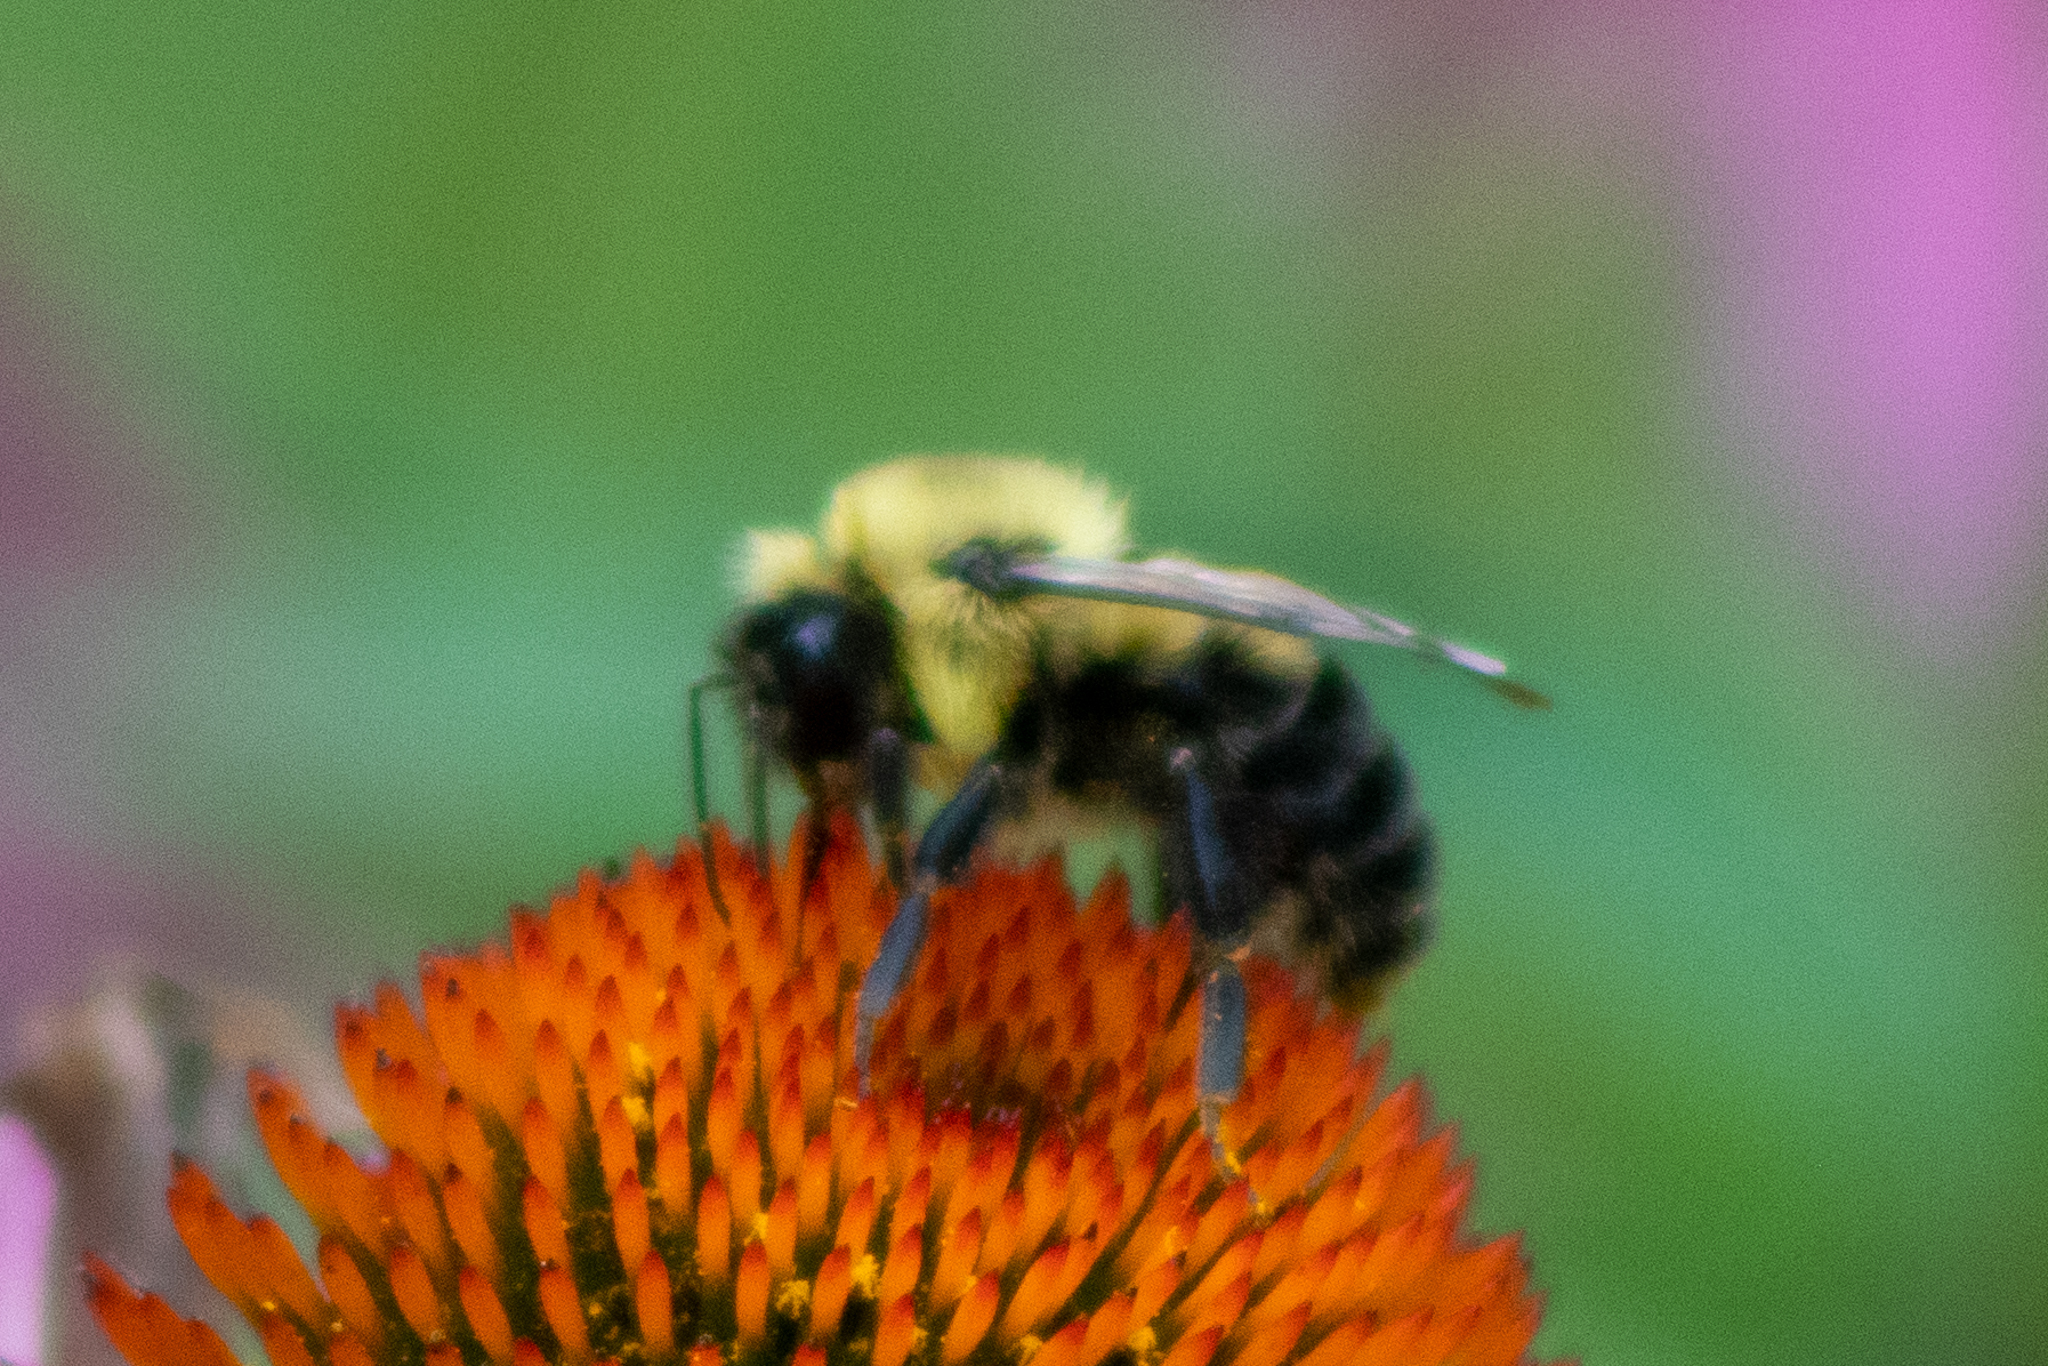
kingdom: Animalia
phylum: Arthropoda
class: Insecta
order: Hymenoptera
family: Apidae
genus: Bombus
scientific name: Bombus bimaculatus
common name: Two-spotted bumble bee
